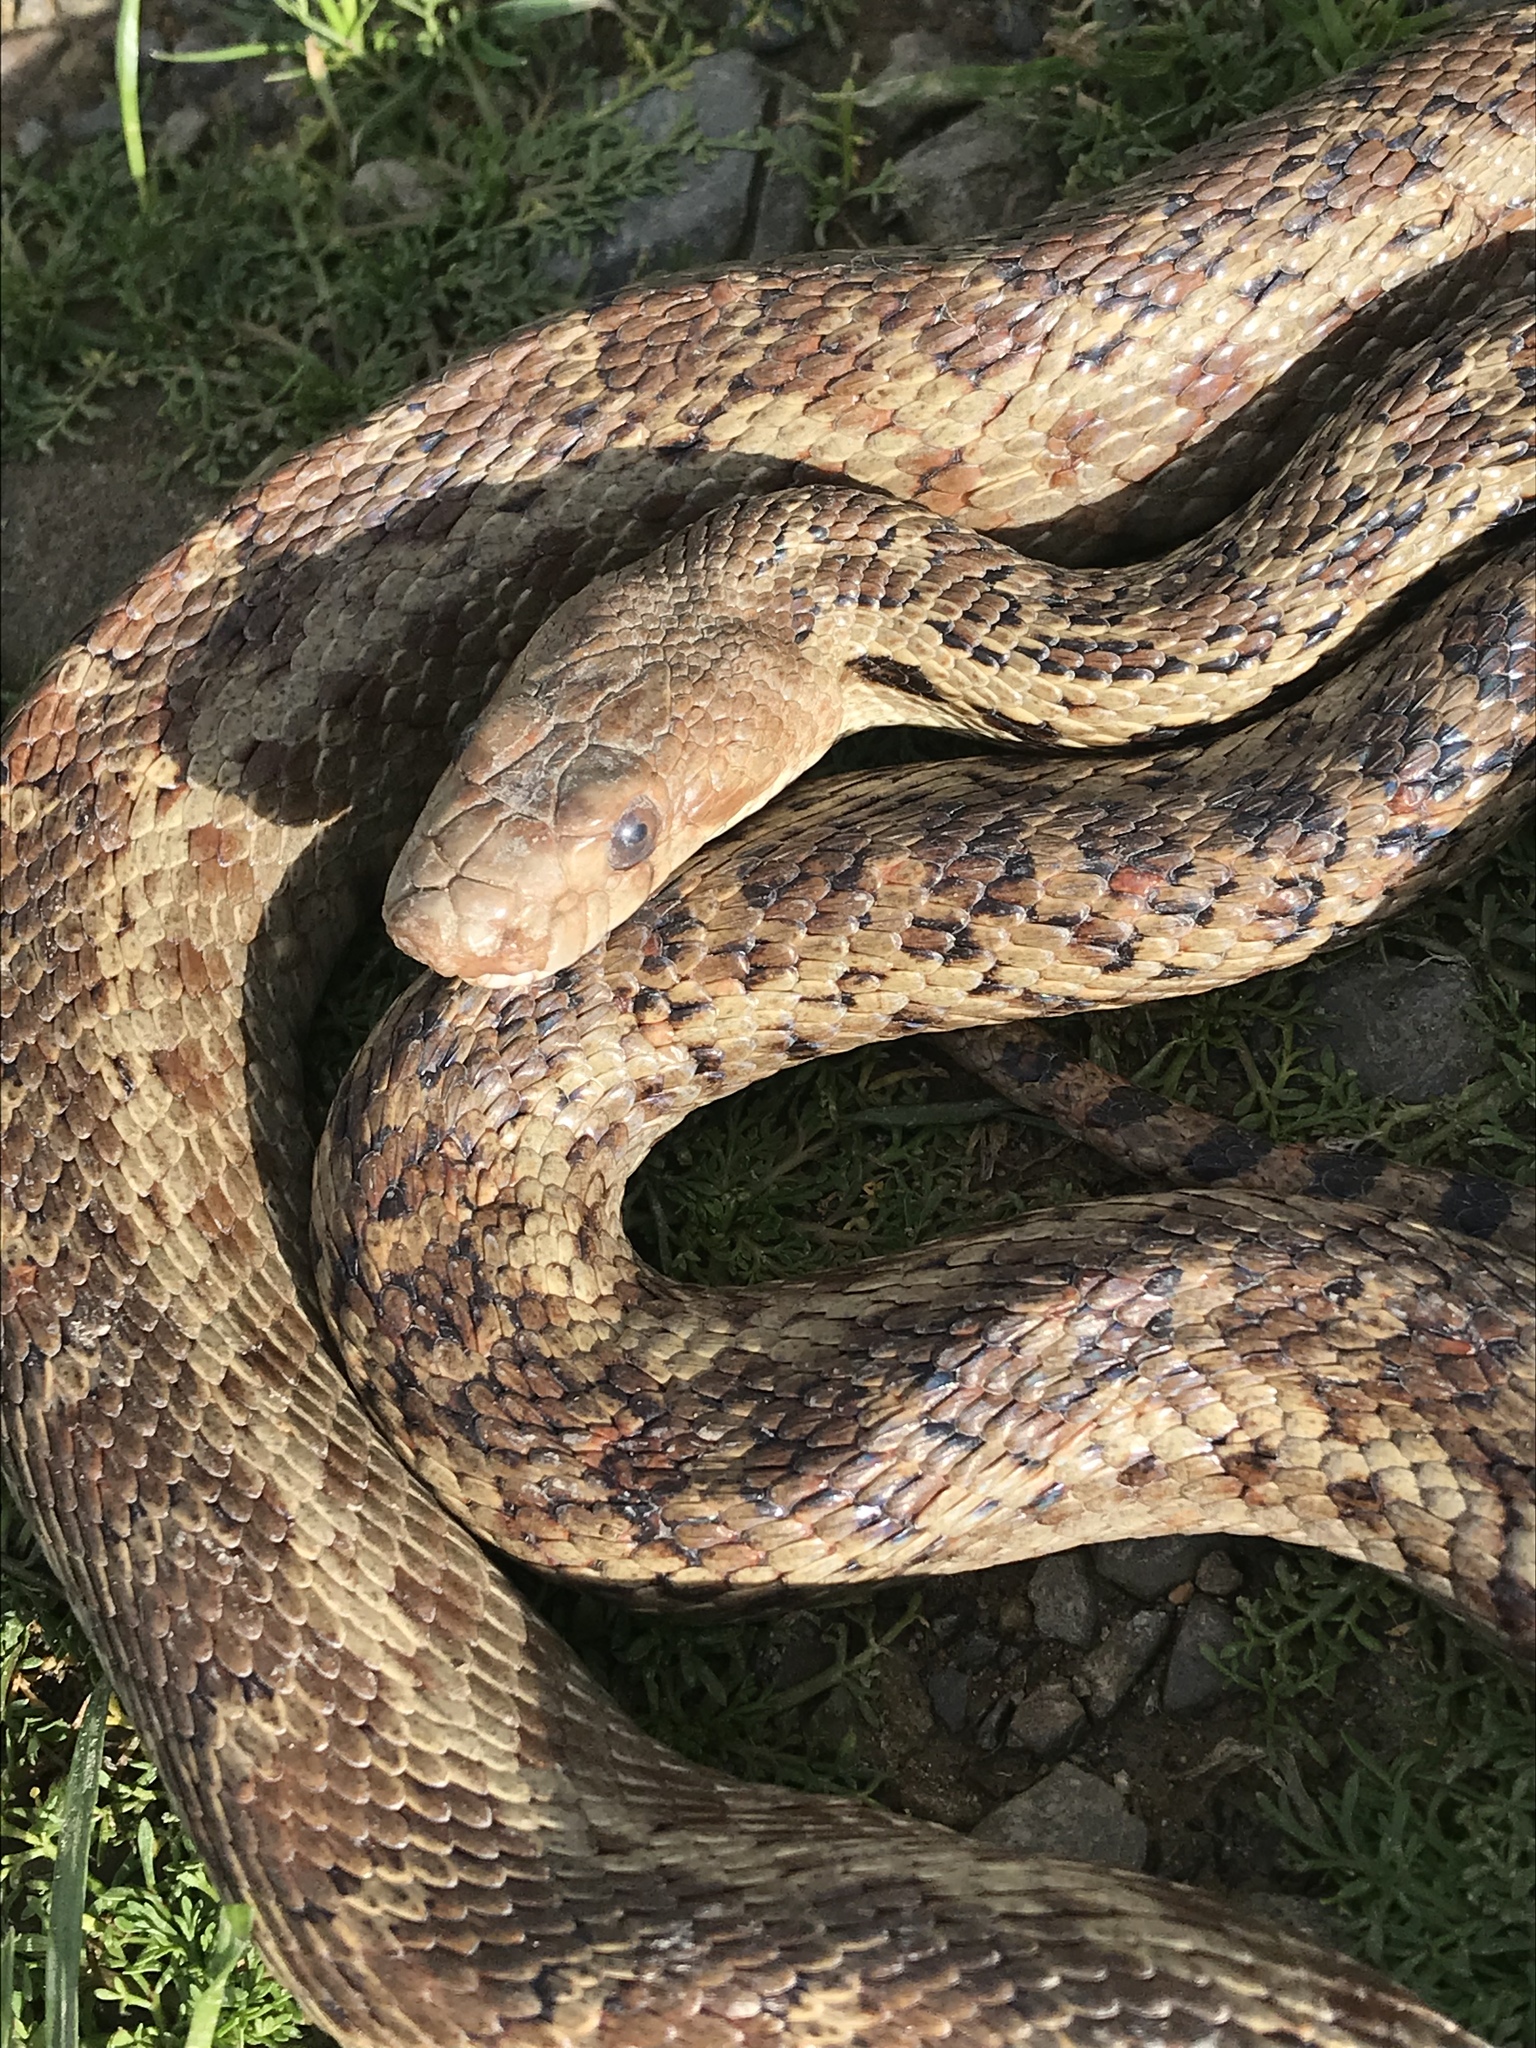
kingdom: Animalia
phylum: Chordata
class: Squamata
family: Colubridae
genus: Pituophis
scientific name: Pituophis catenifer
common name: Gopher snake
